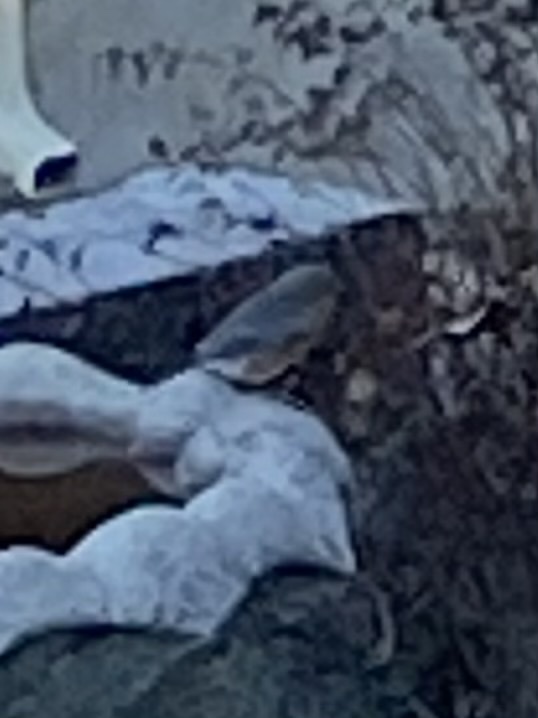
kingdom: Animalia
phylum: Chordata
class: Aves
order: Passeriformes
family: Turdidae
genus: Sialia
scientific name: Sialia sialis
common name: Eastern bluebird
